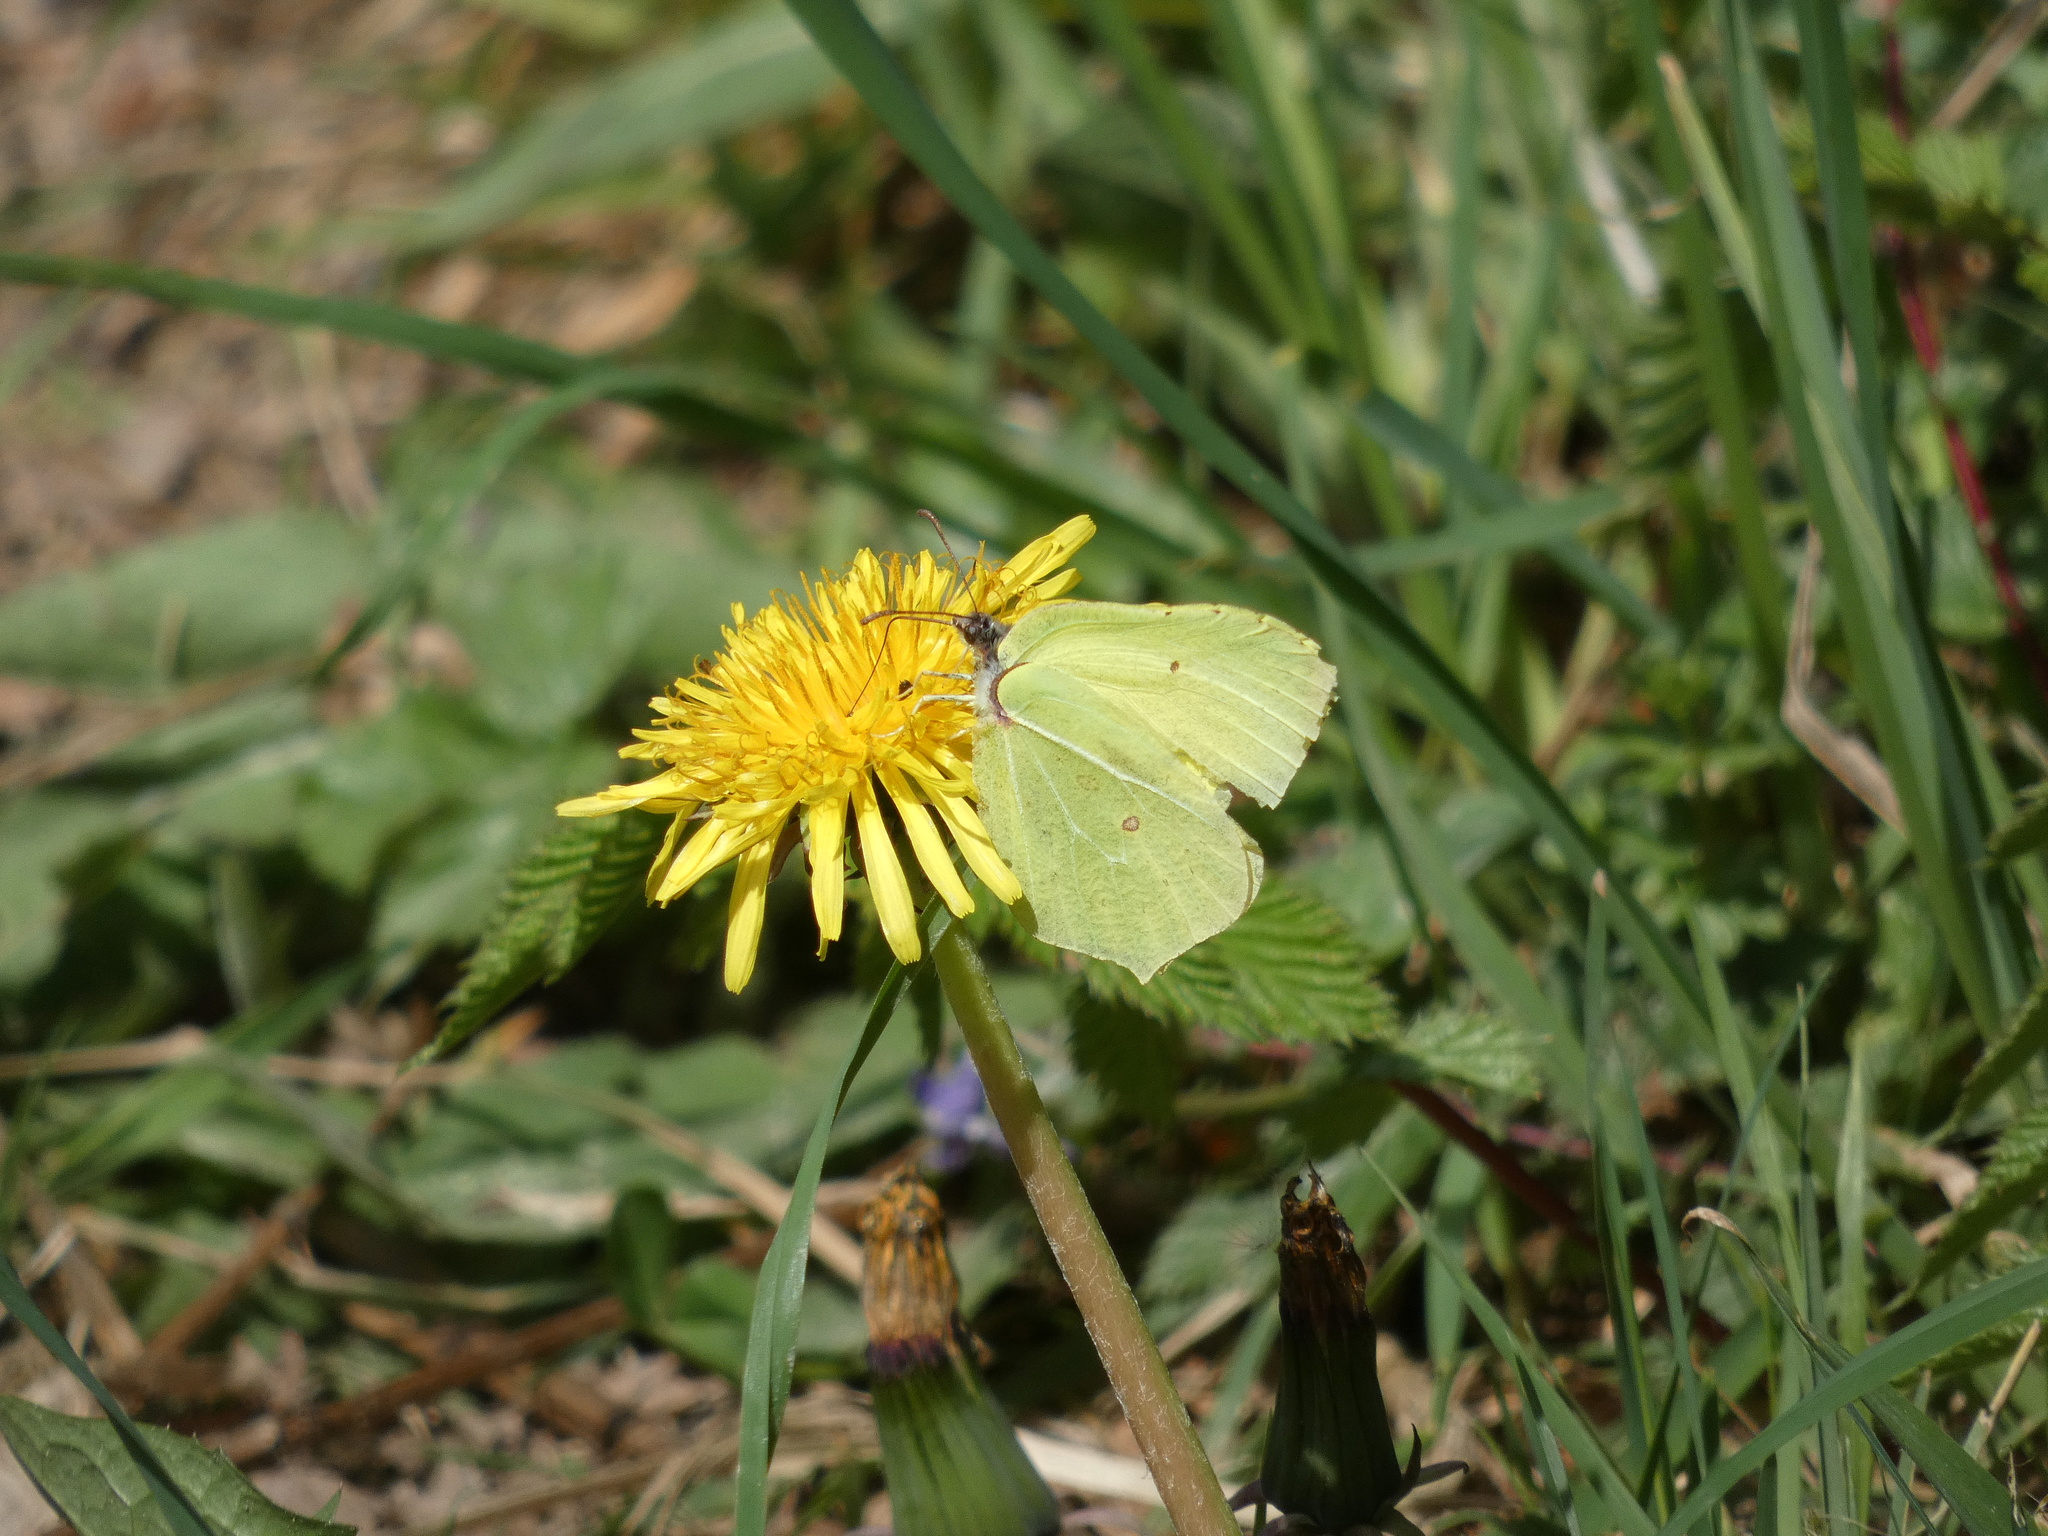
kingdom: Animalia
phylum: Arthropoda
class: Insecta
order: Lepidoptera
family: Pieridae
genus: Gonepteryx
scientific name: Gonepteryx rhamni
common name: Brimstone
